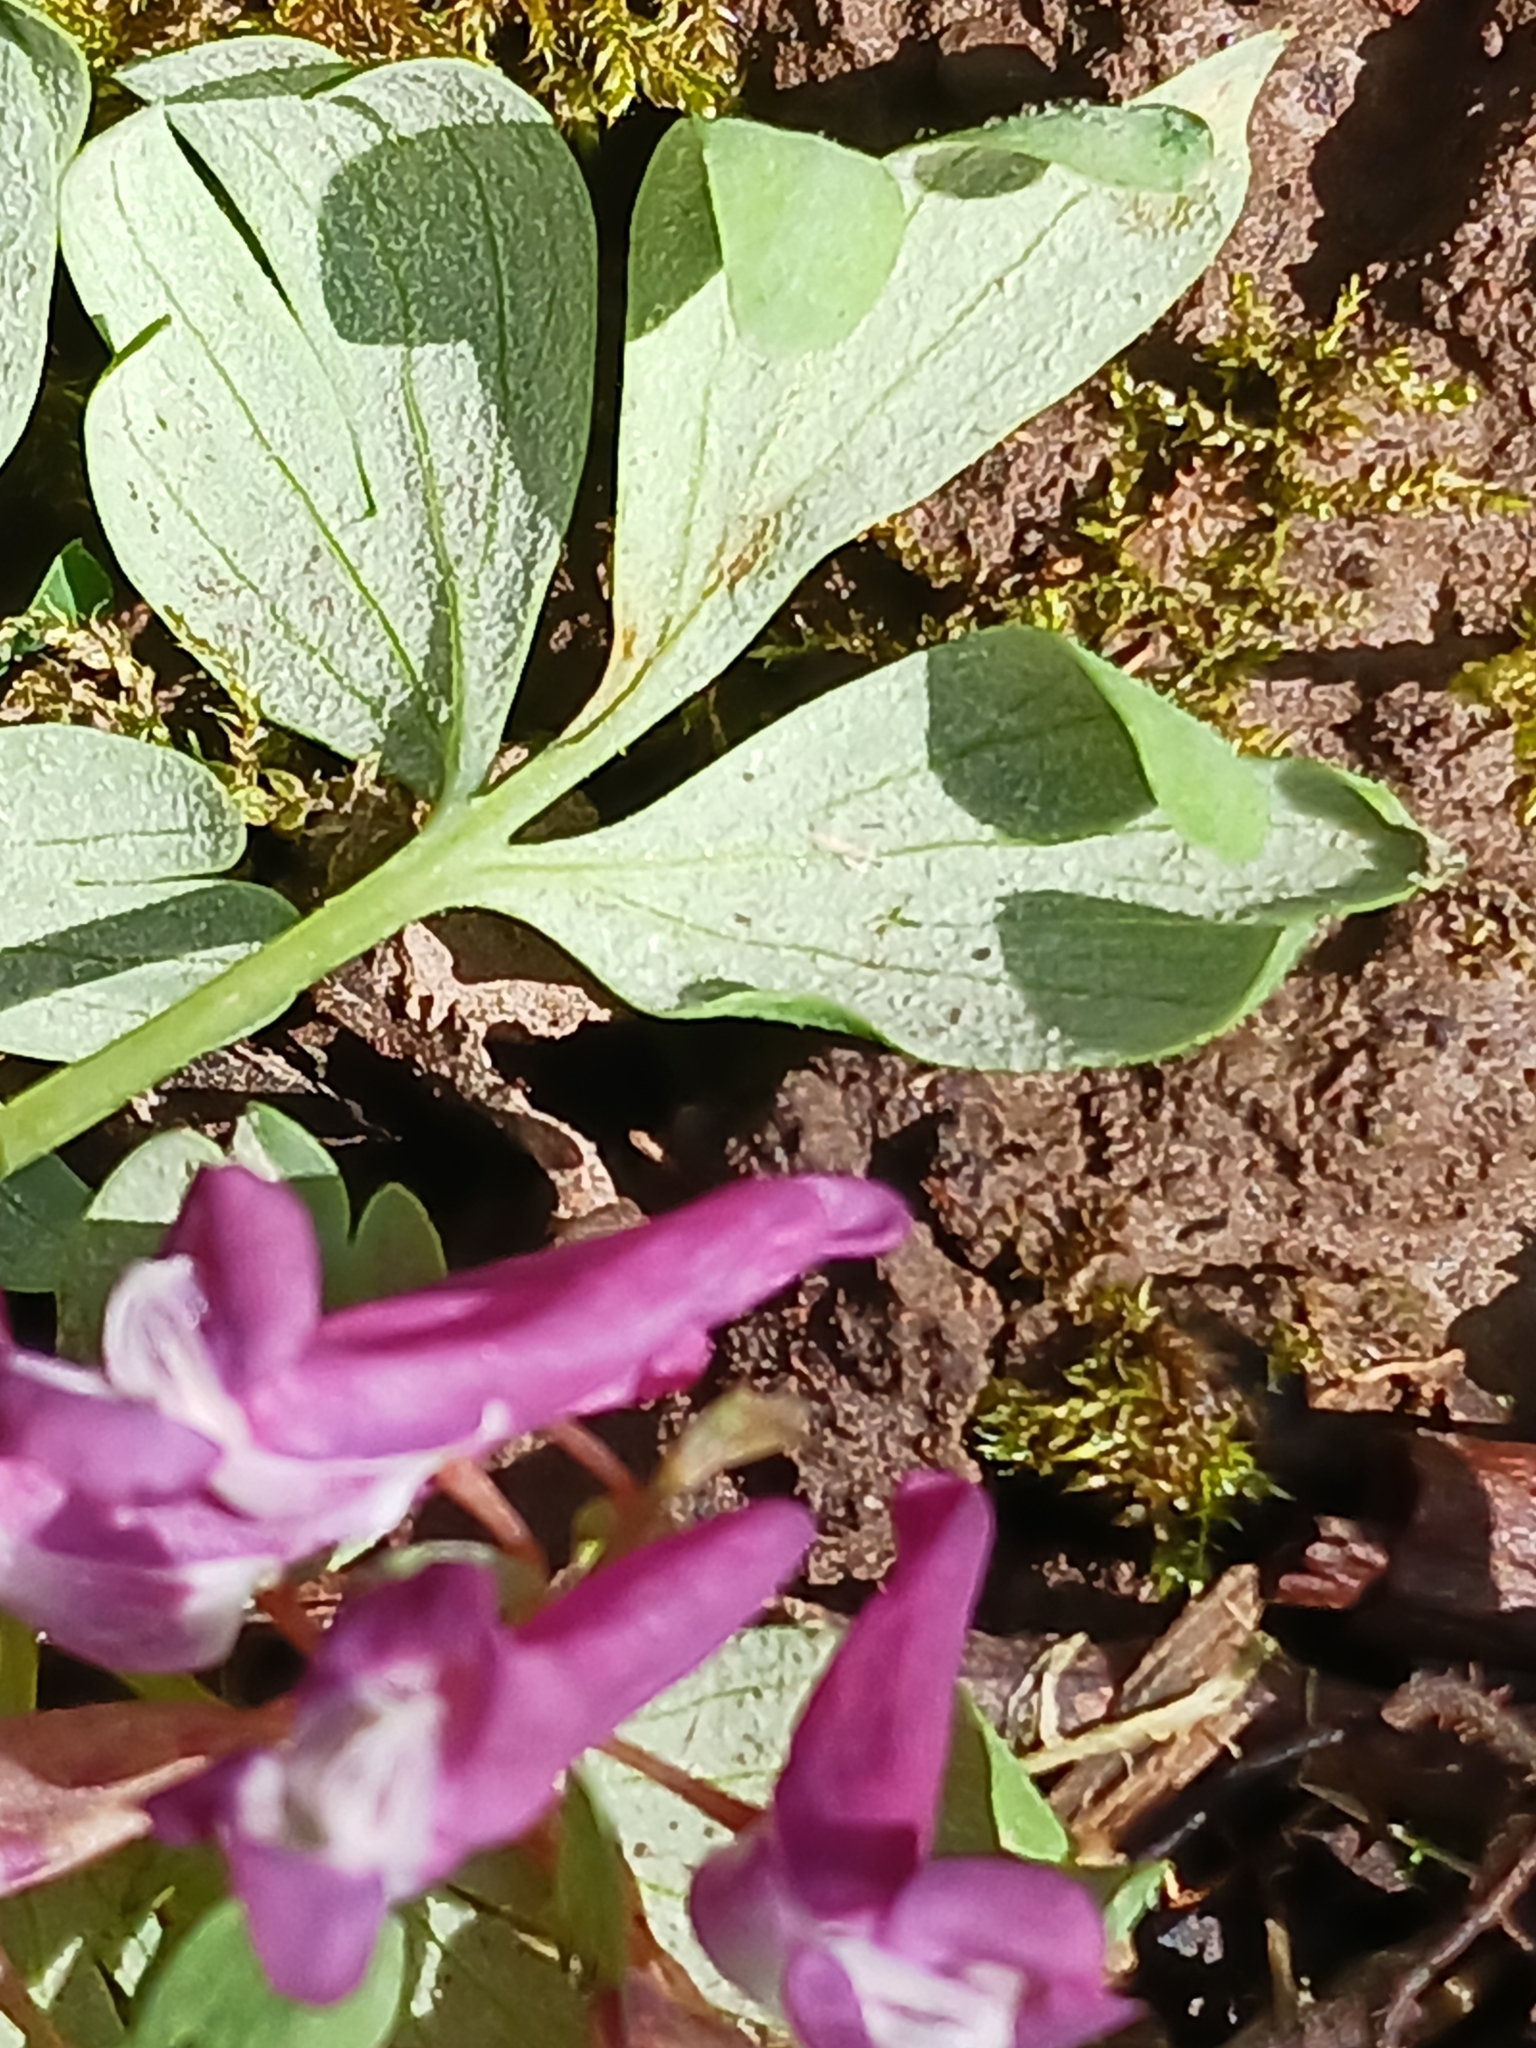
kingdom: Chromista
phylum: Oomycota
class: Peronosporea
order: Peronosporales
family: Peronosporaceae
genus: Peronospora
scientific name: Peronospora corydalis
